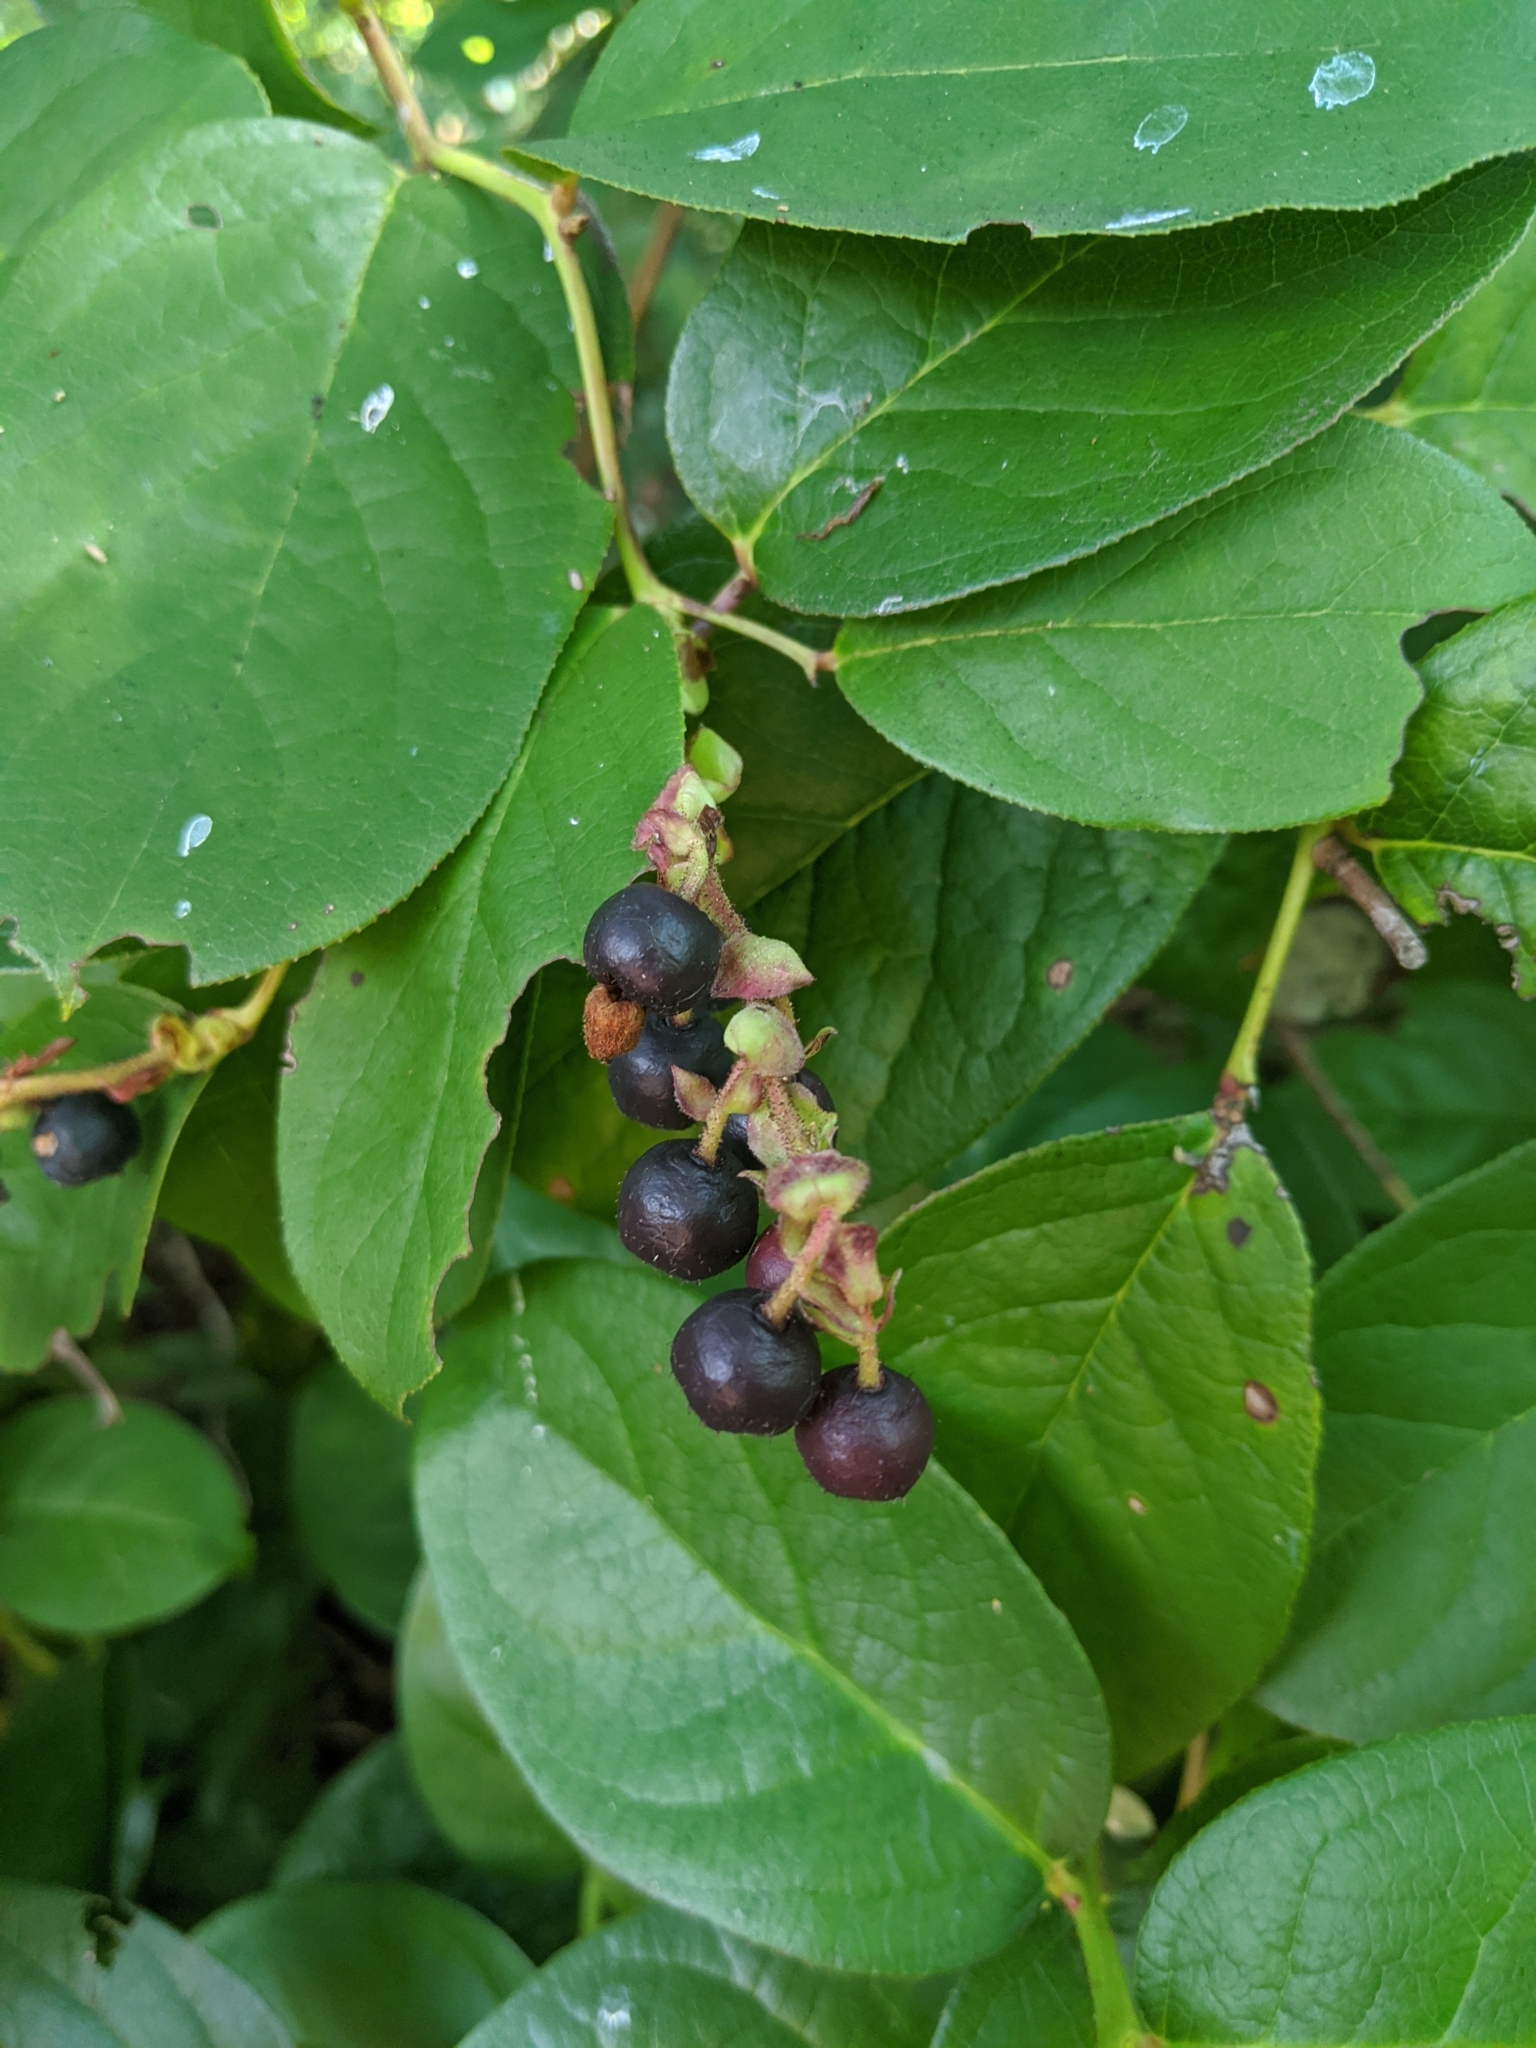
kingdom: Plantae
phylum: Tracheophyta
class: Magnoliopsida
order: Ericales
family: Ericaceae
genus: Gaultheria
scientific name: Gaultheria shallon
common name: Shallon
